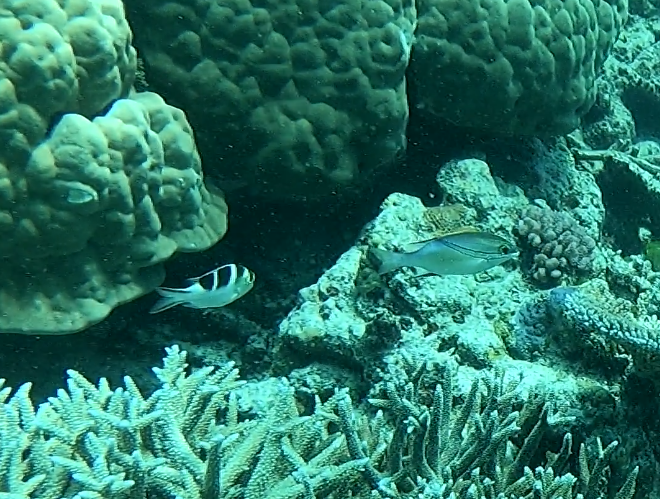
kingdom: Animalia
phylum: Chordata
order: Perciformes
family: Lethrinidae
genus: Monotaxis
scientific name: Monotaxis grandoculis
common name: Bigeye emperor
